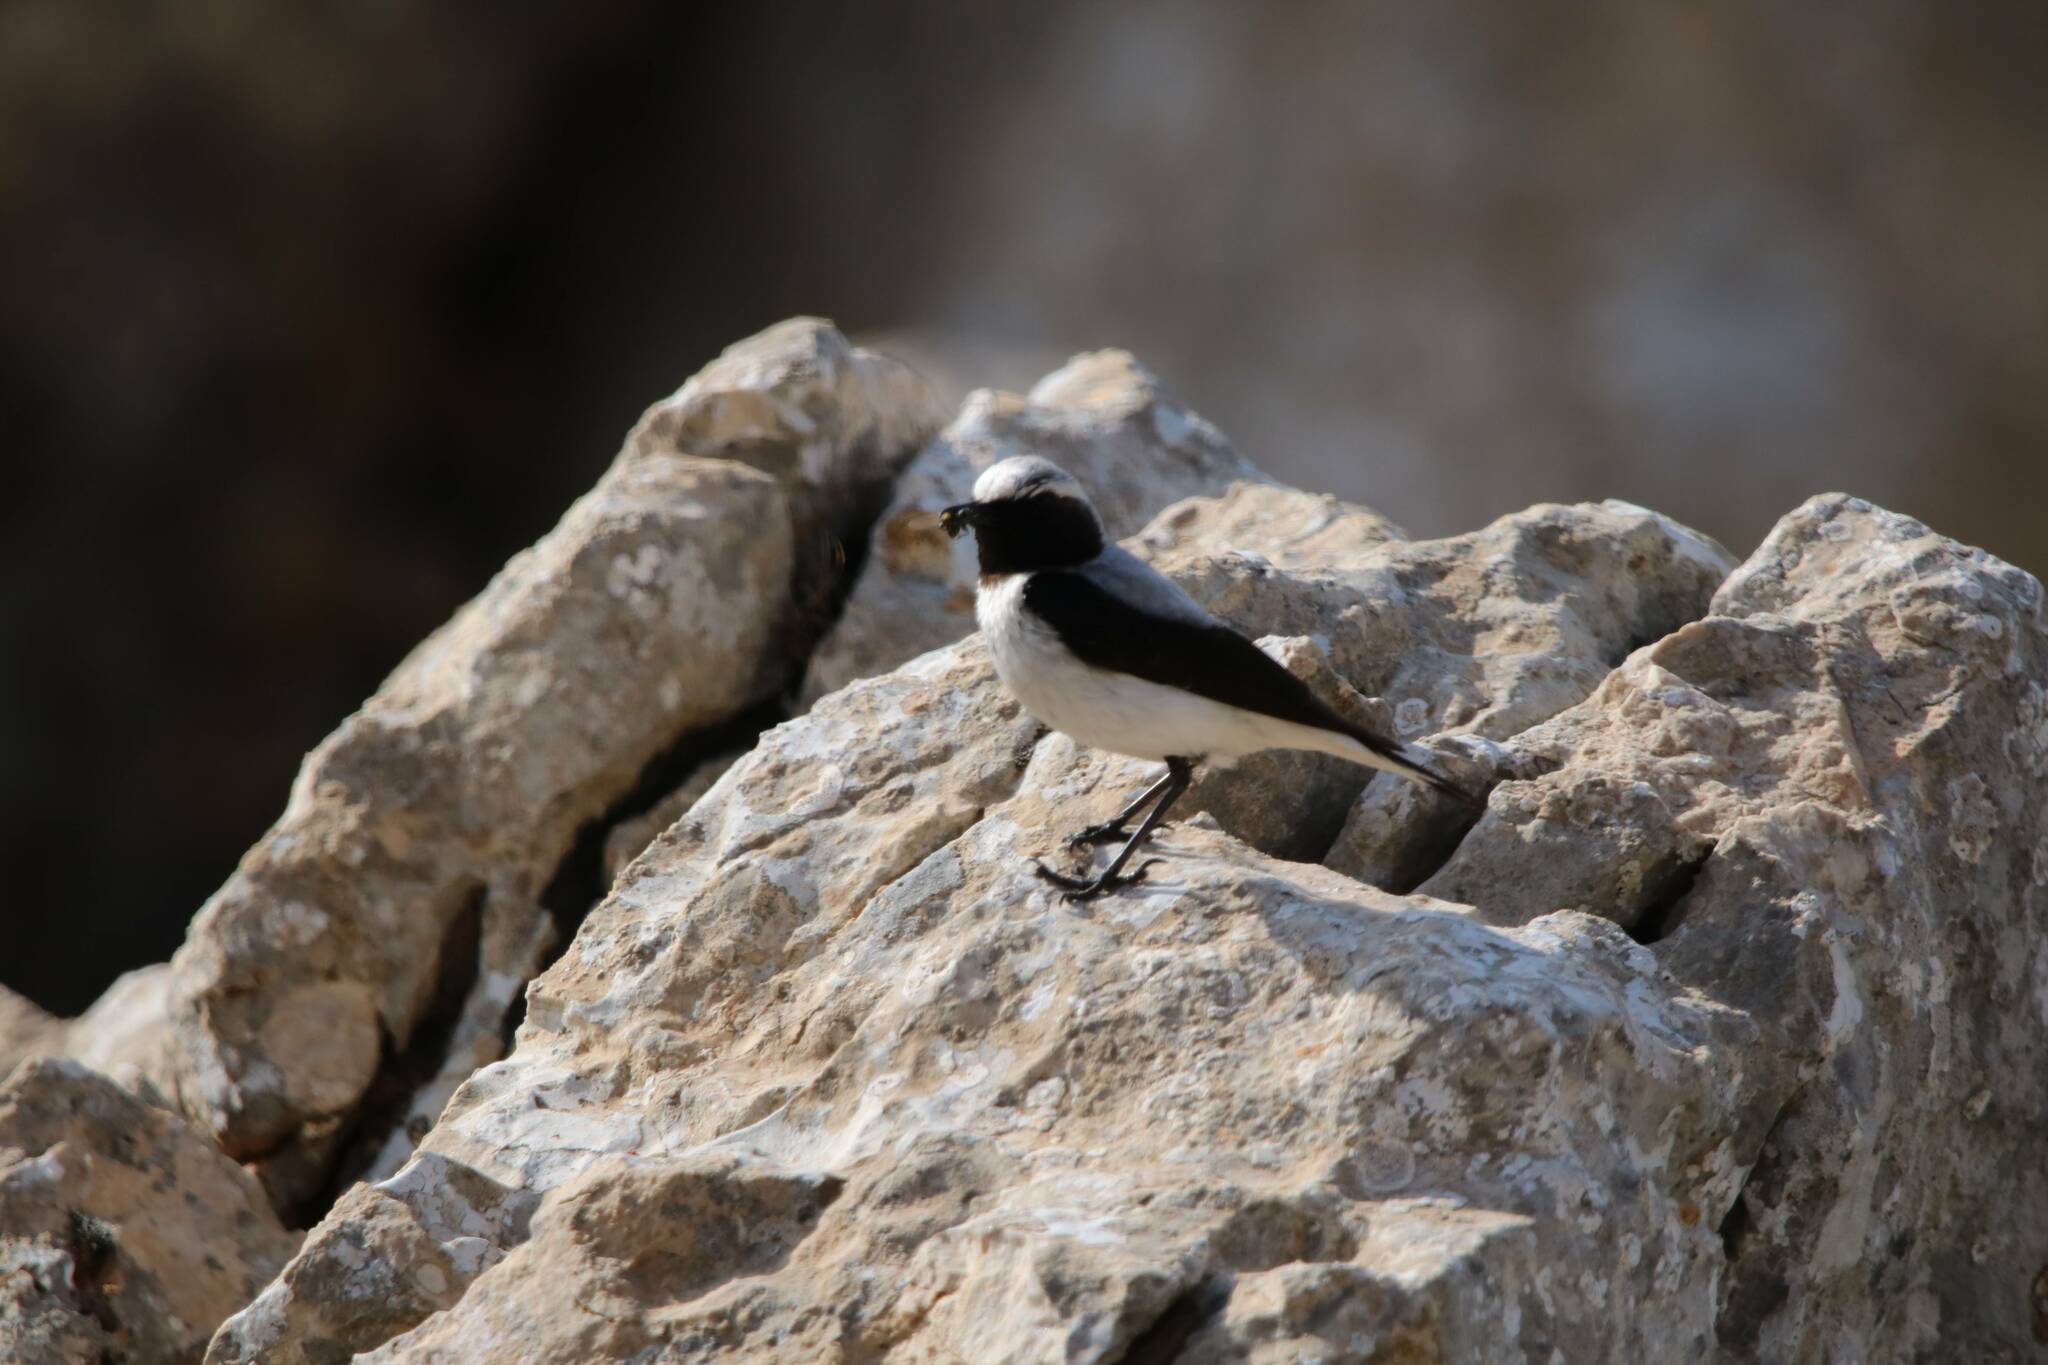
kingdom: Animalia
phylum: Chordata
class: Aves
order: Passeriformes
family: Muscicapidae
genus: Oenanthe
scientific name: Oenanthe oenanthe
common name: Northern wheatear
